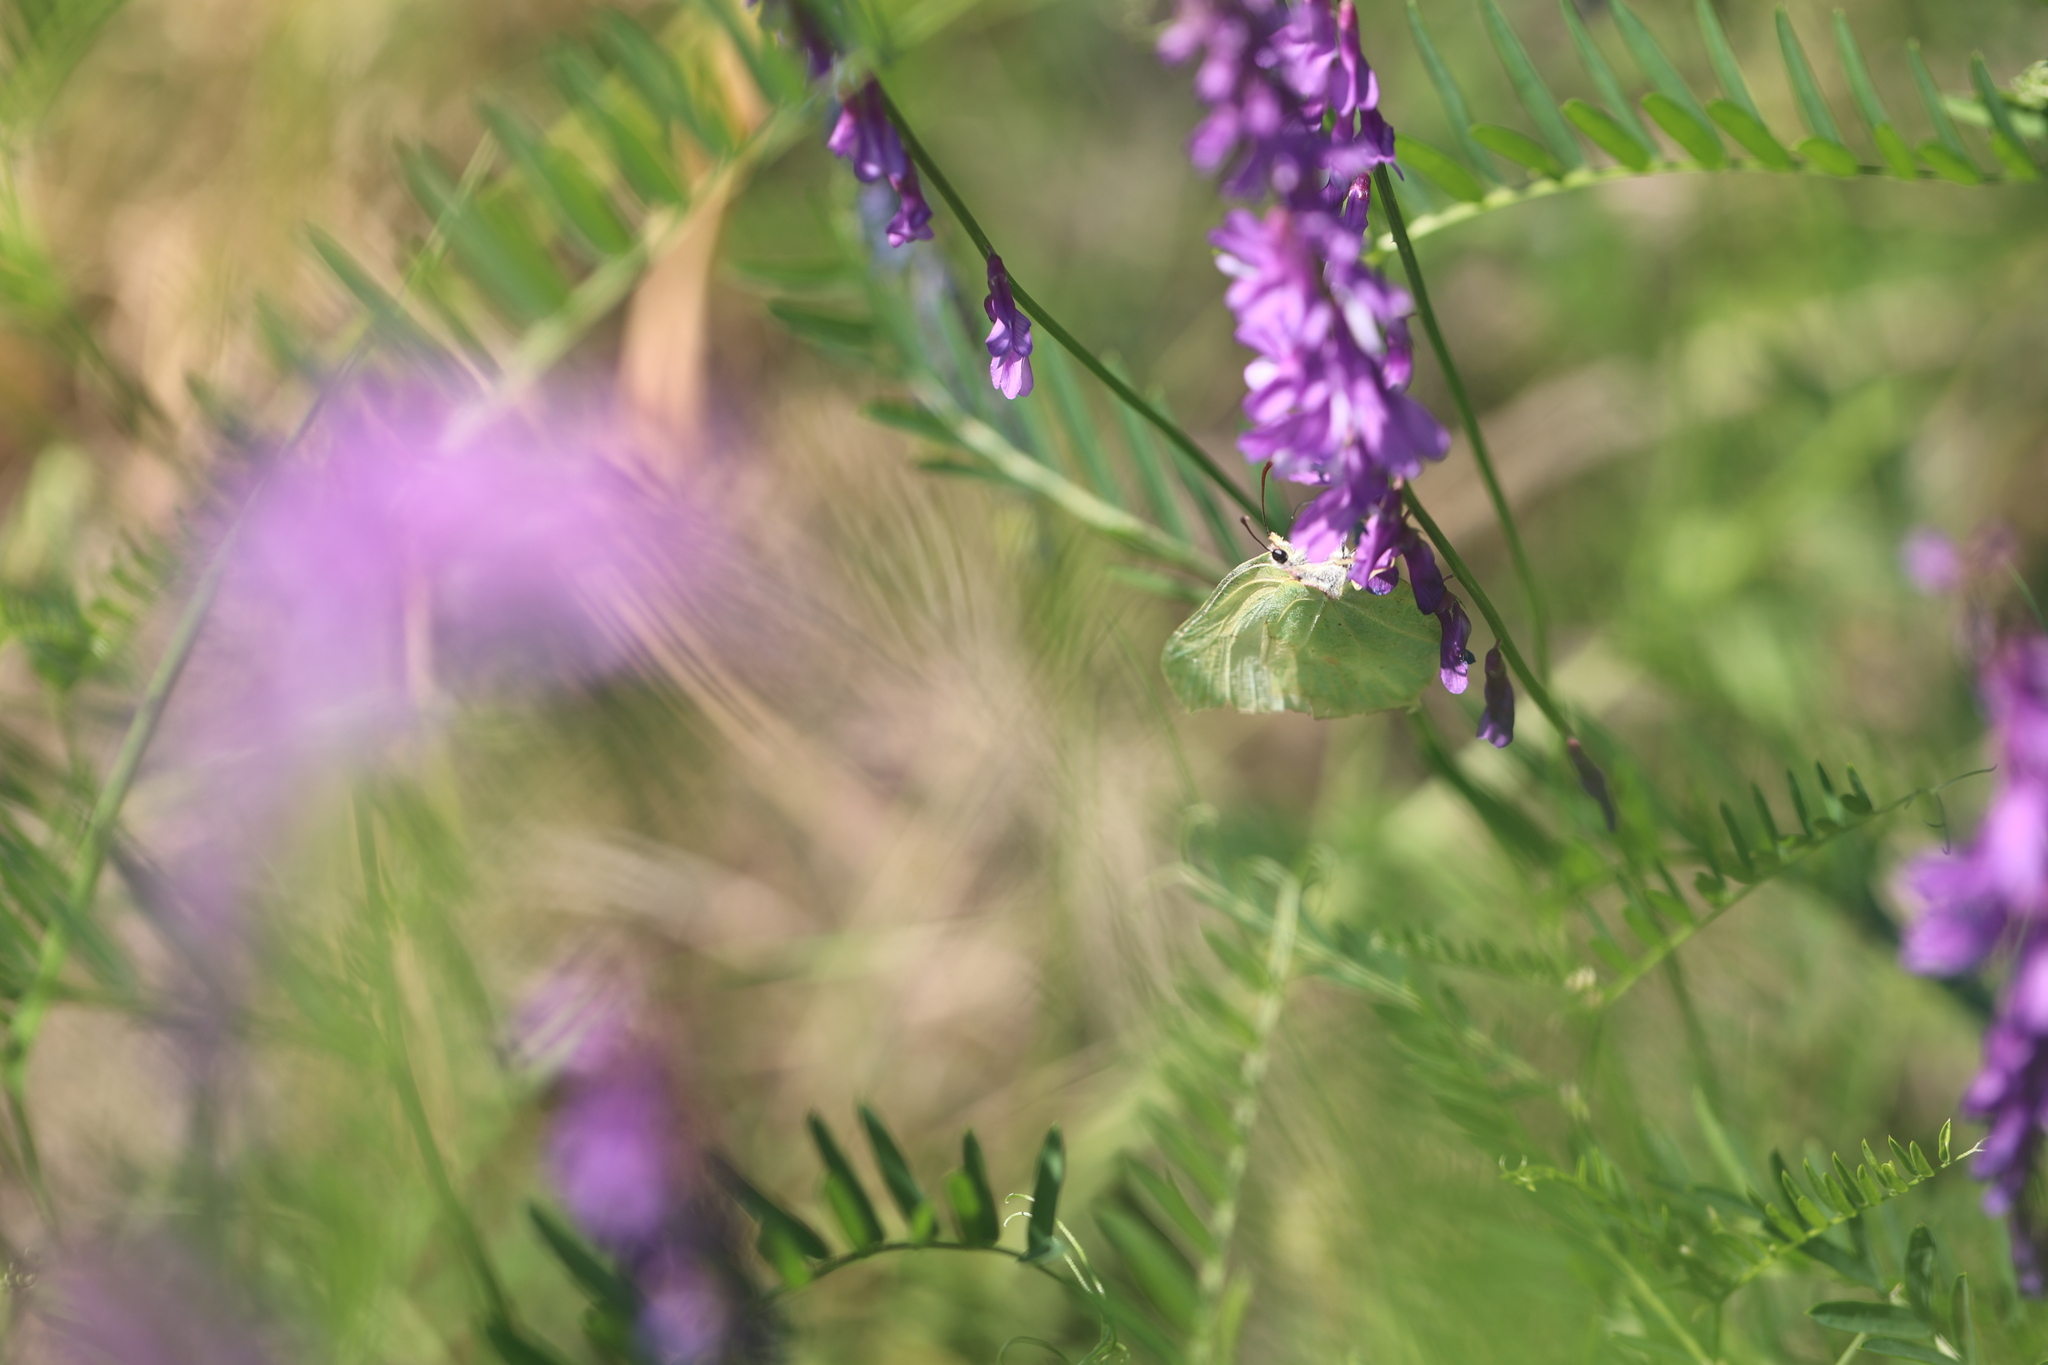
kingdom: Animalia
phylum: Arthropoda
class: Insecta
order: Lepidoptera
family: Pieridae
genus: Gonepteryx
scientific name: Gonepteryx rhamni
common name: Brimstone
